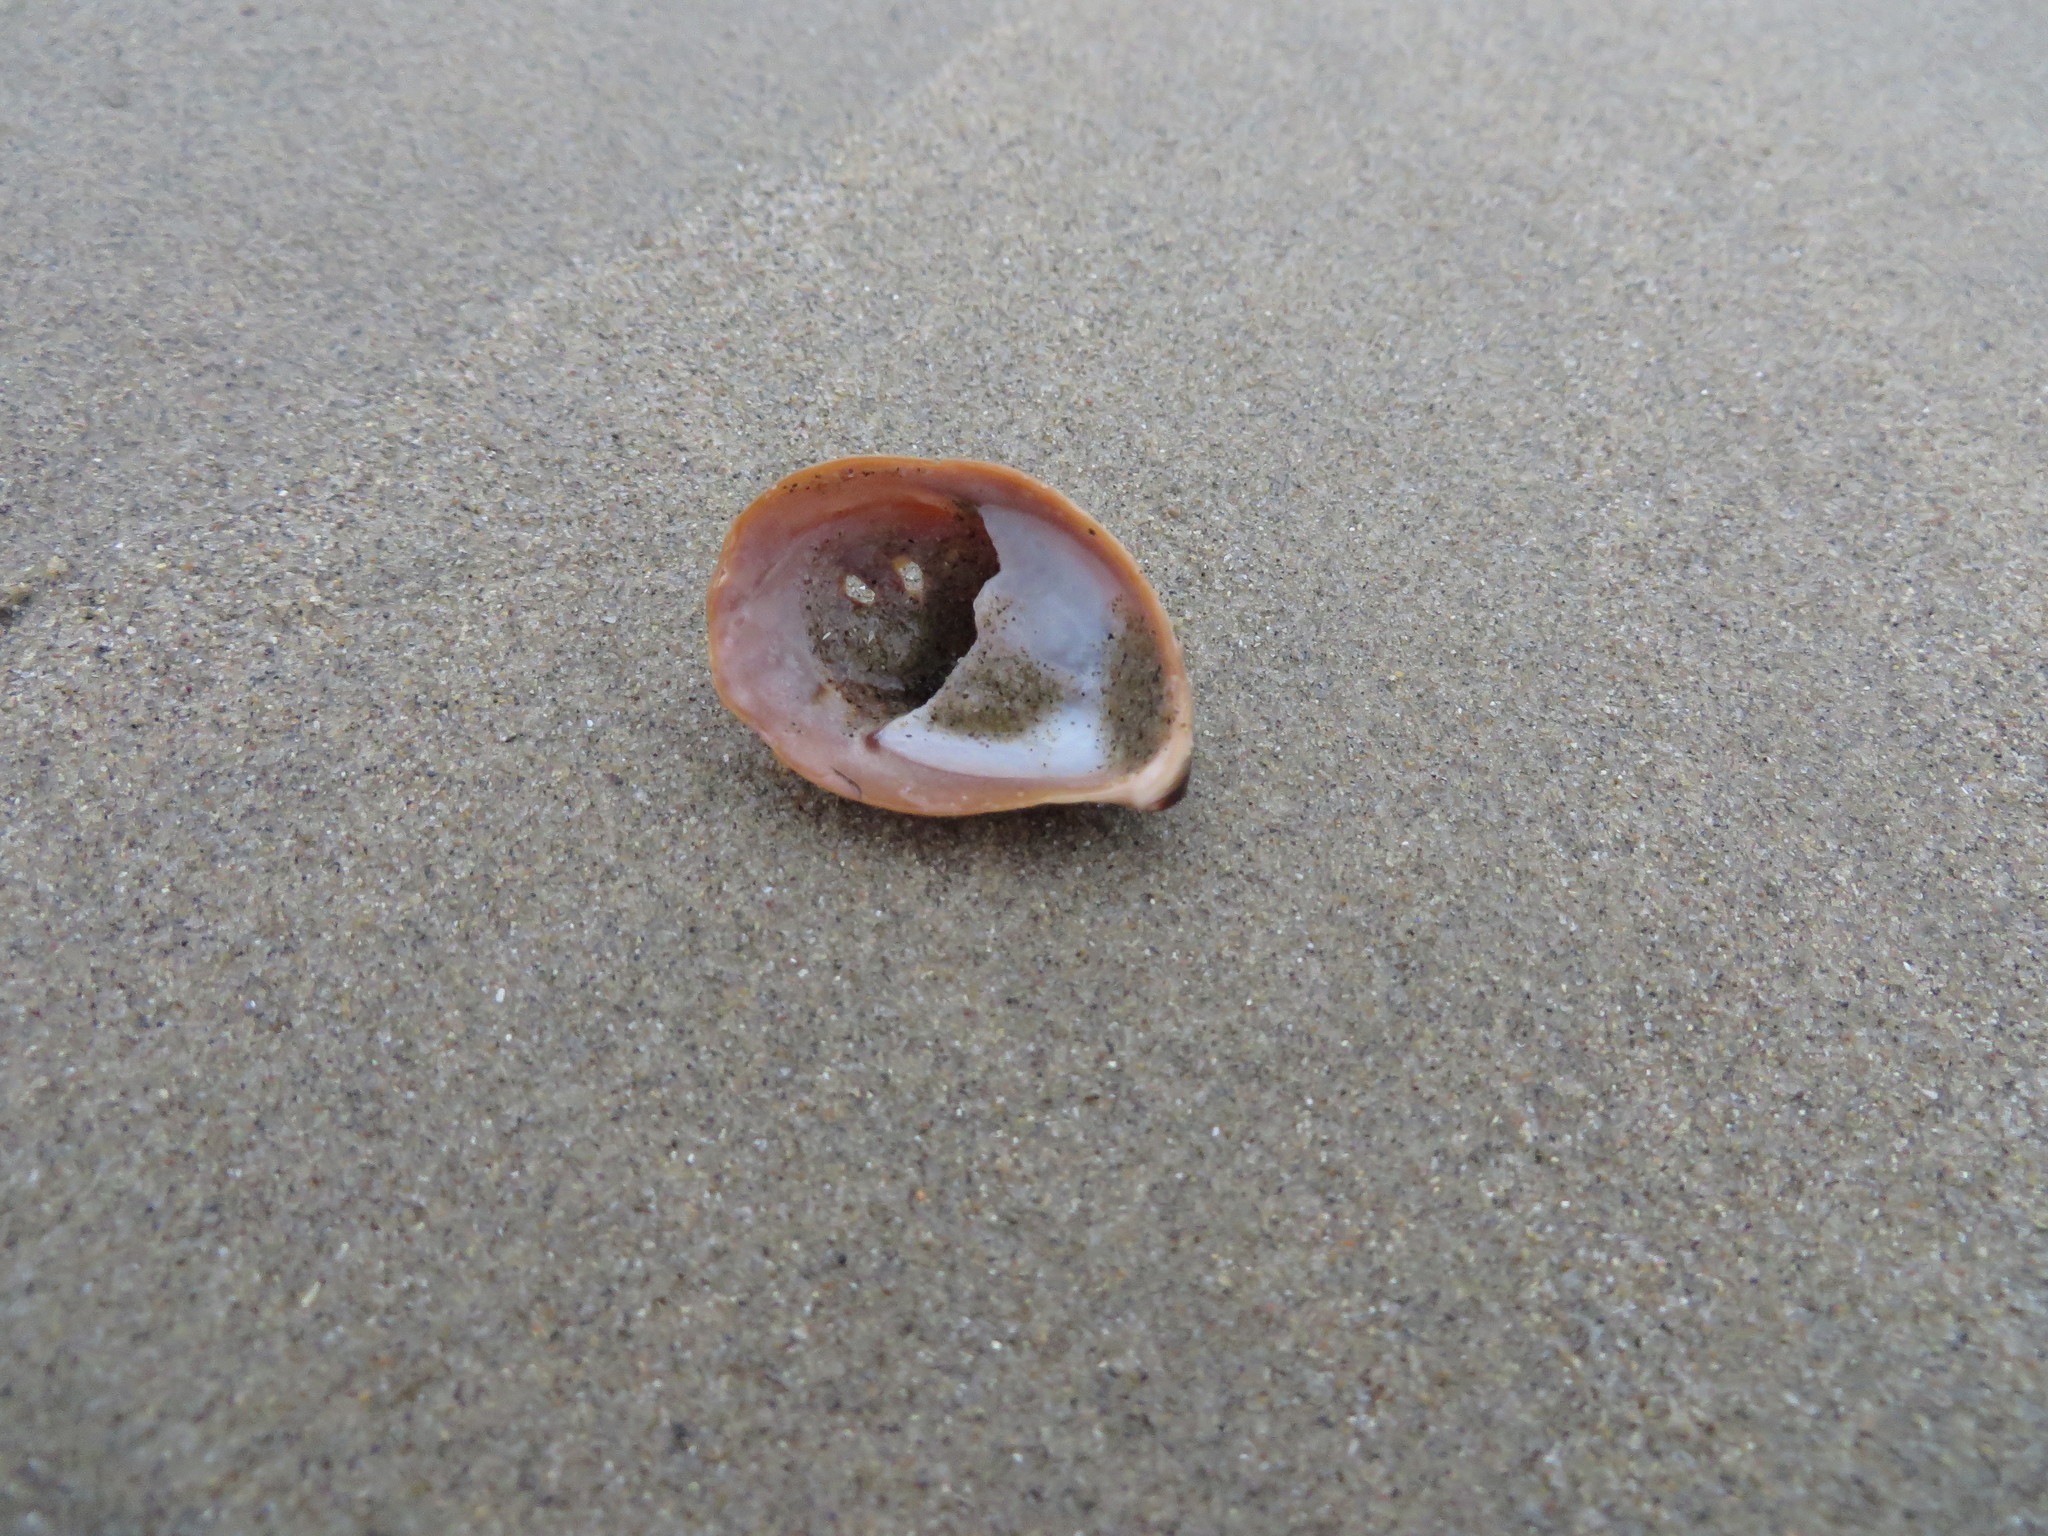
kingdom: Animalia
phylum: Mollusca
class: Gastropoda
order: Littorinimorpha
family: Calyptraeidae
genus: Crepidula
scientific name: Crepidula onyx
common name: Onyx slippersnail
